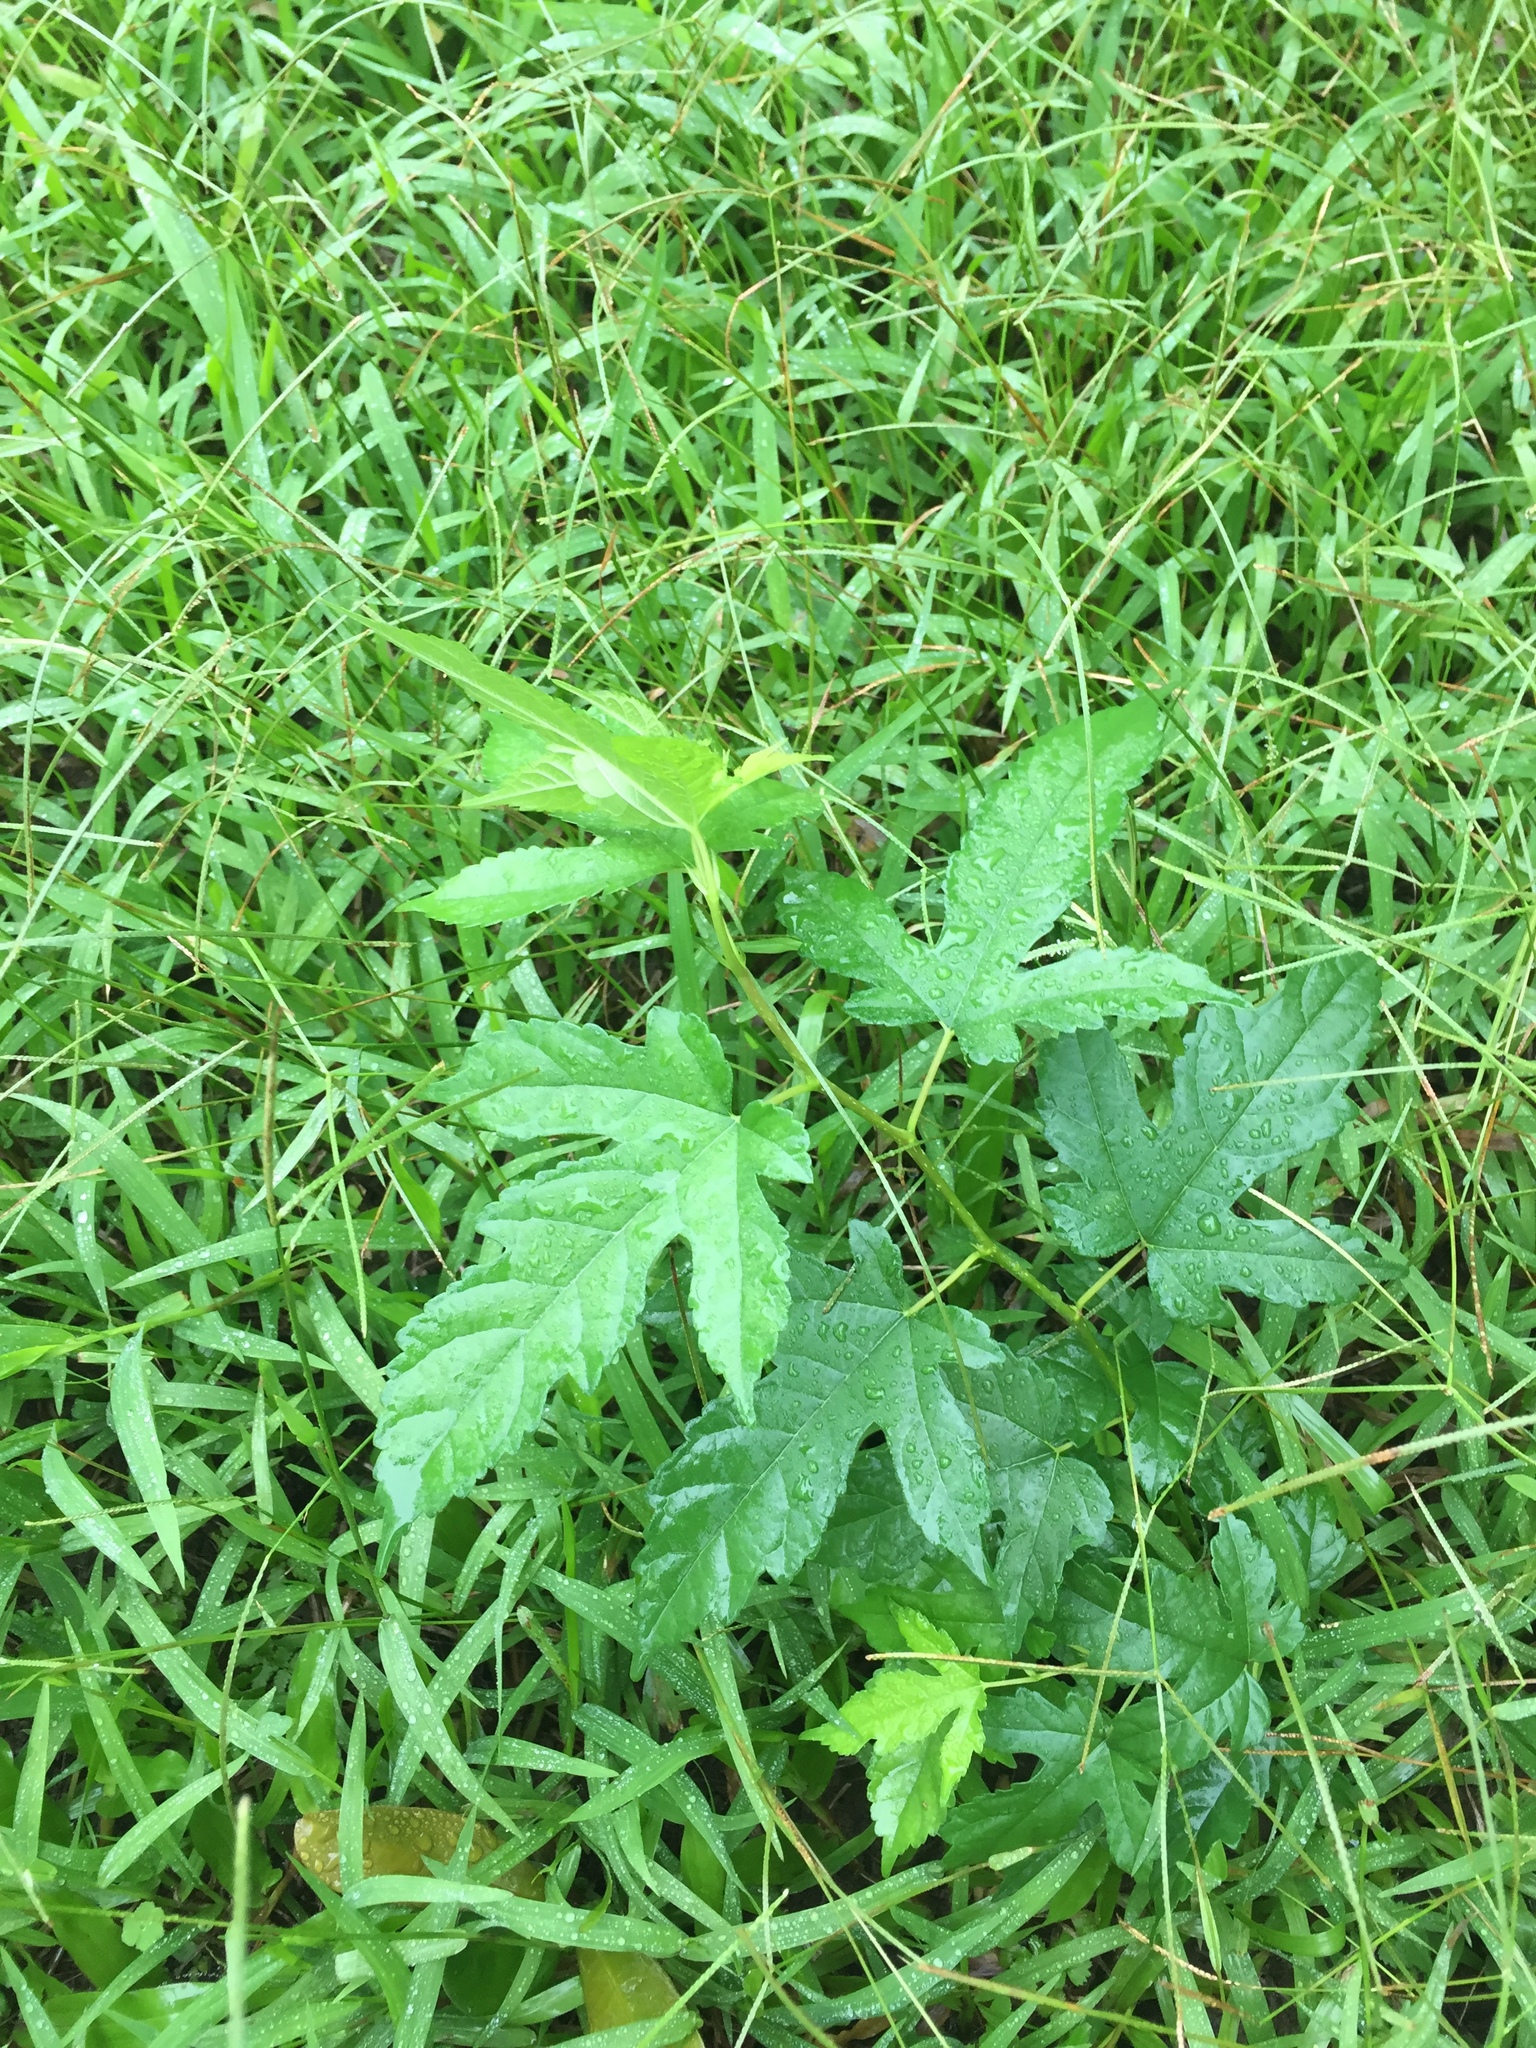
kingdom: Plantae
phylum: Tracheophyta
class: Magnoliopsida
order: Rosales
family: Moraceae
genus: Morus
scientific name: Morus indica
